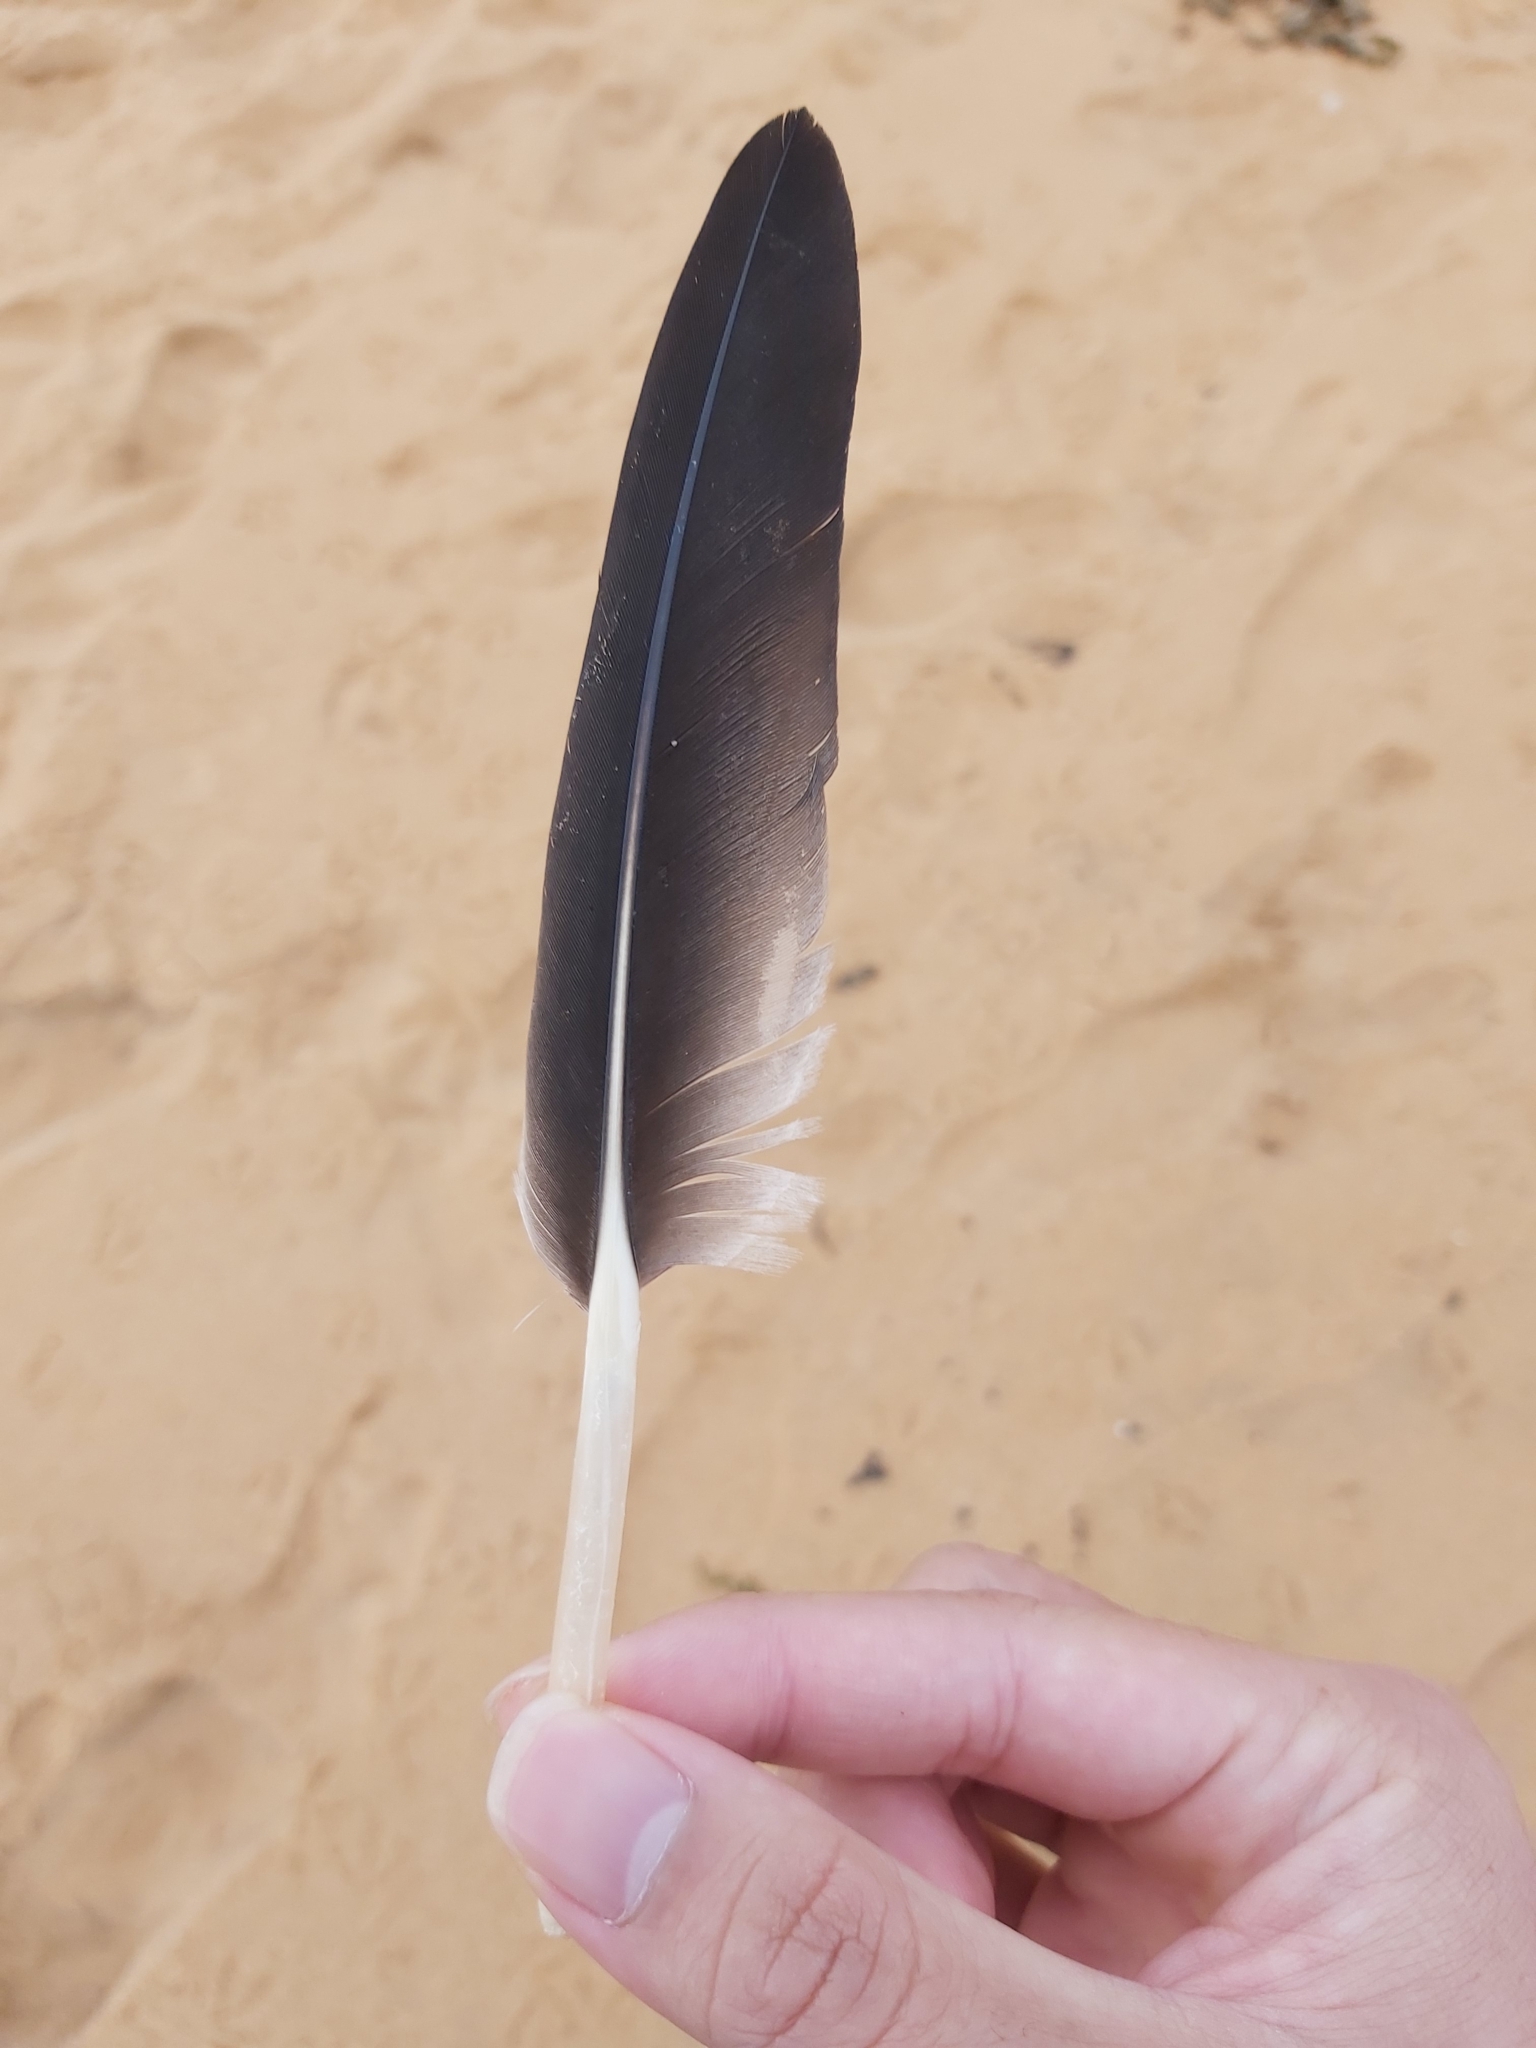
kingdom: Animalia
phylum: Chordata
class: Aves
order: Pelecaniformes
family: Pelecanidae
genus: Pelecanus
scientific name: Pelecanus conspicillatus
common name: Australian pelican
